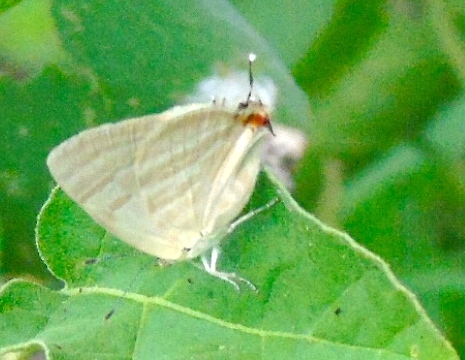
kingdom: Animalia
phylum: Arthropoda
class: Insecta
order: Lepidoptera
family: Lycaenidae
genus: Dolymorpha
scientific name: Dolymorpha jada
